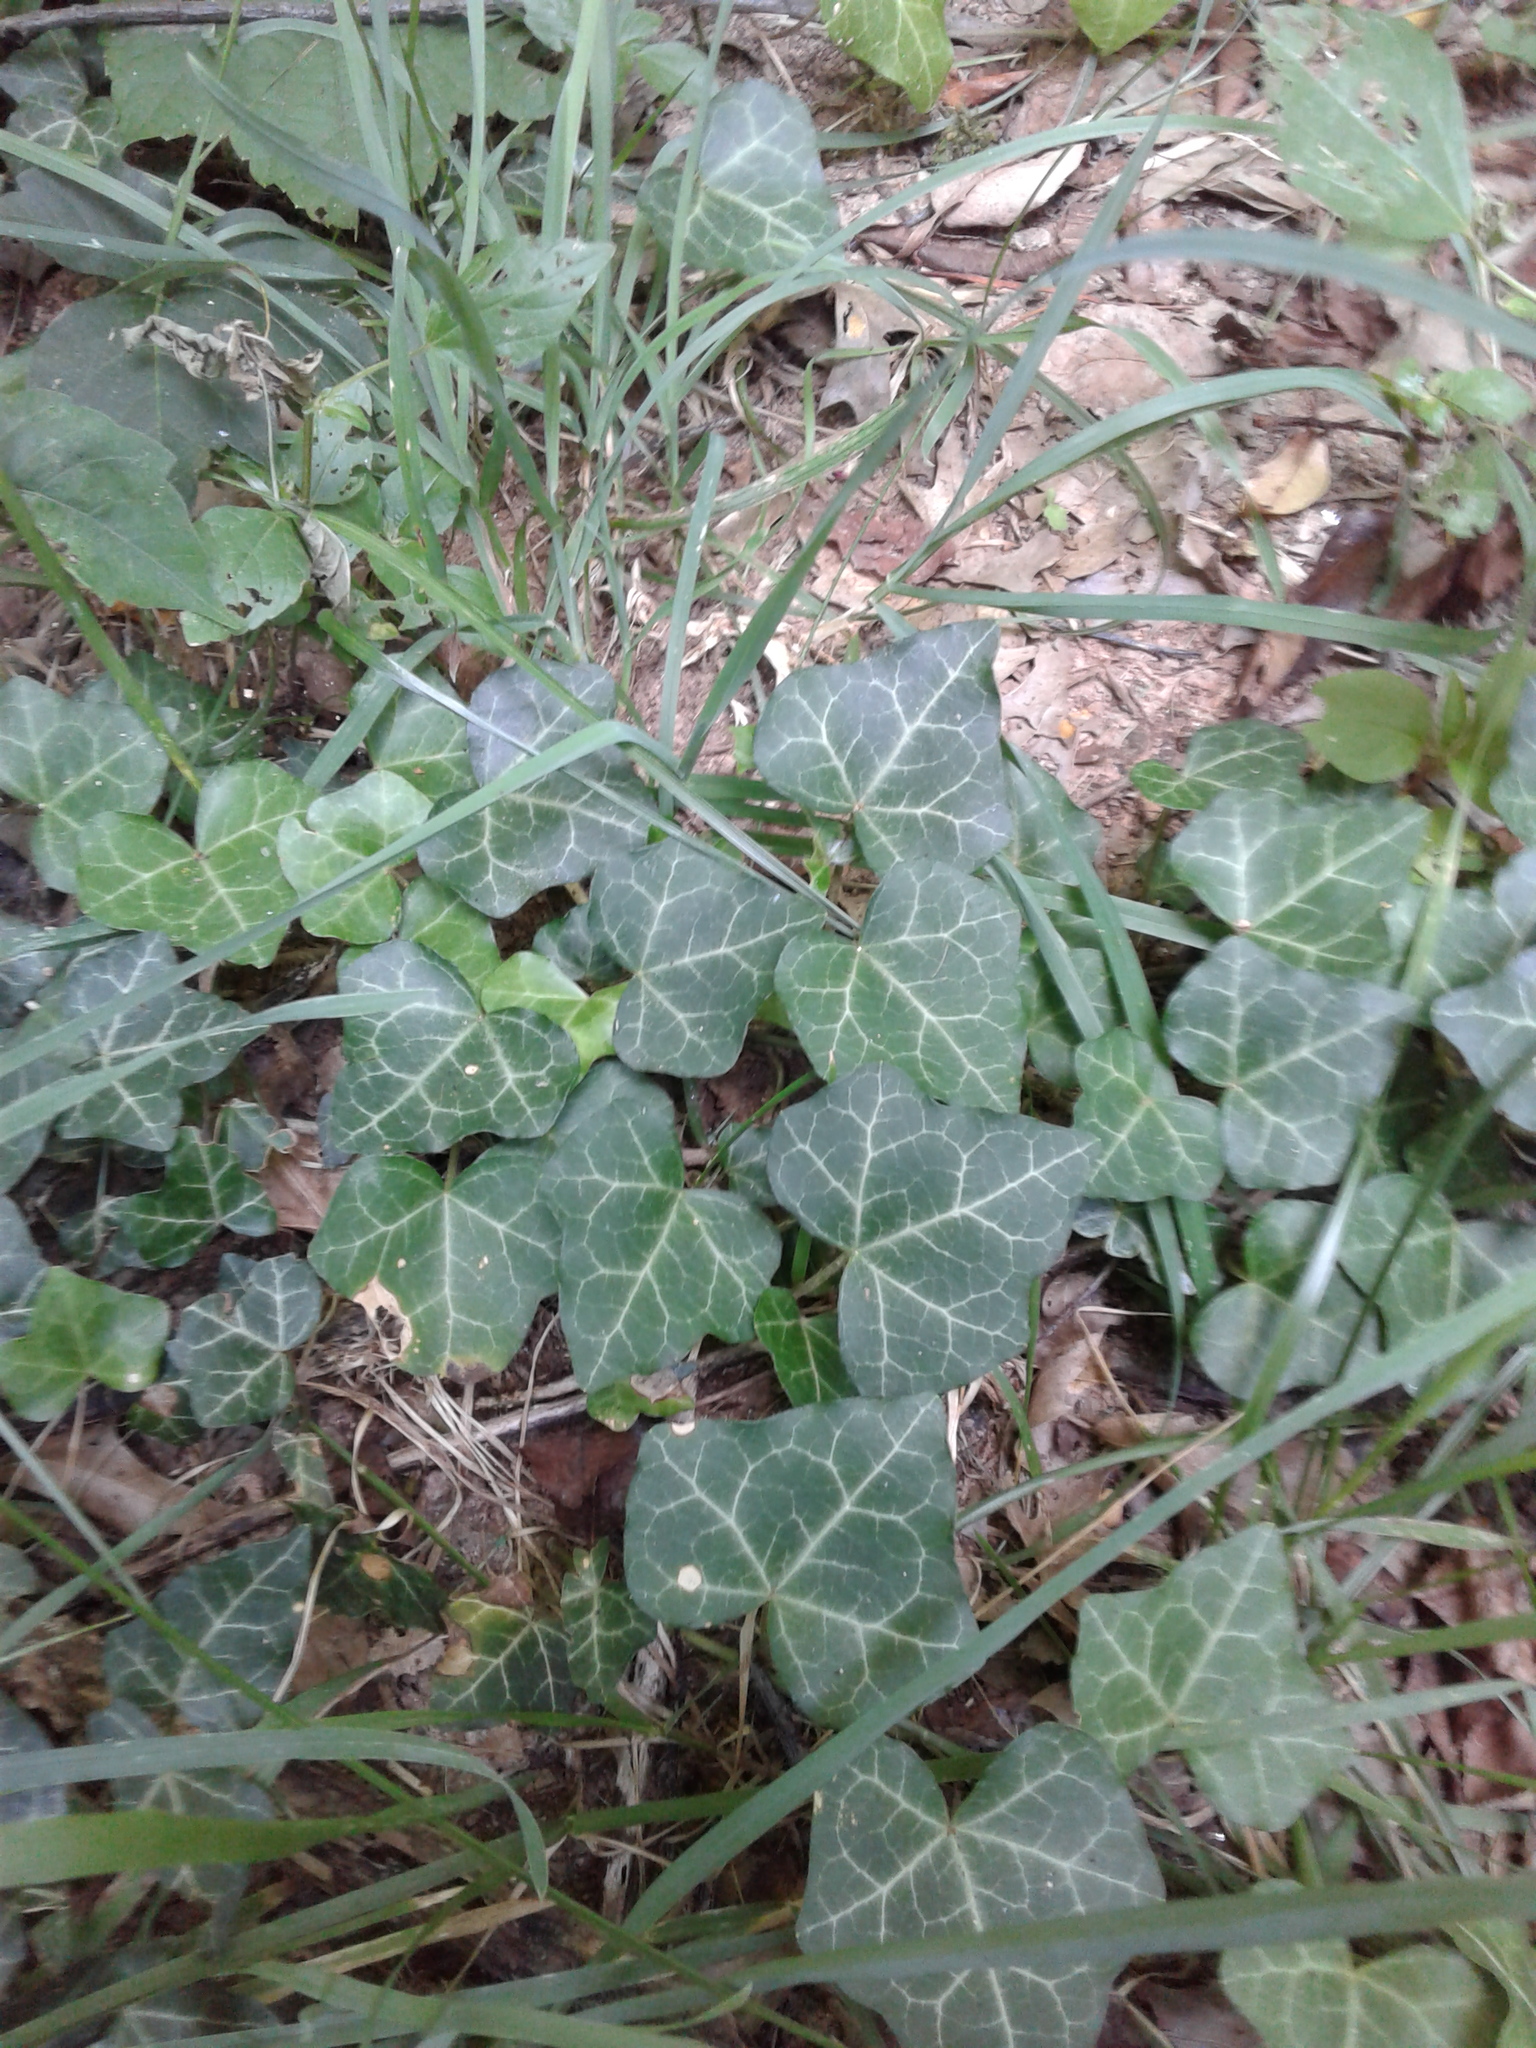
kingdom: Plantae
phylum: Tracheophyta
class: Magnoliopsida
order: Apiales
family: Araliaceae
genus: Hedera
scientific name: Hedera helix
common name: Ivy
